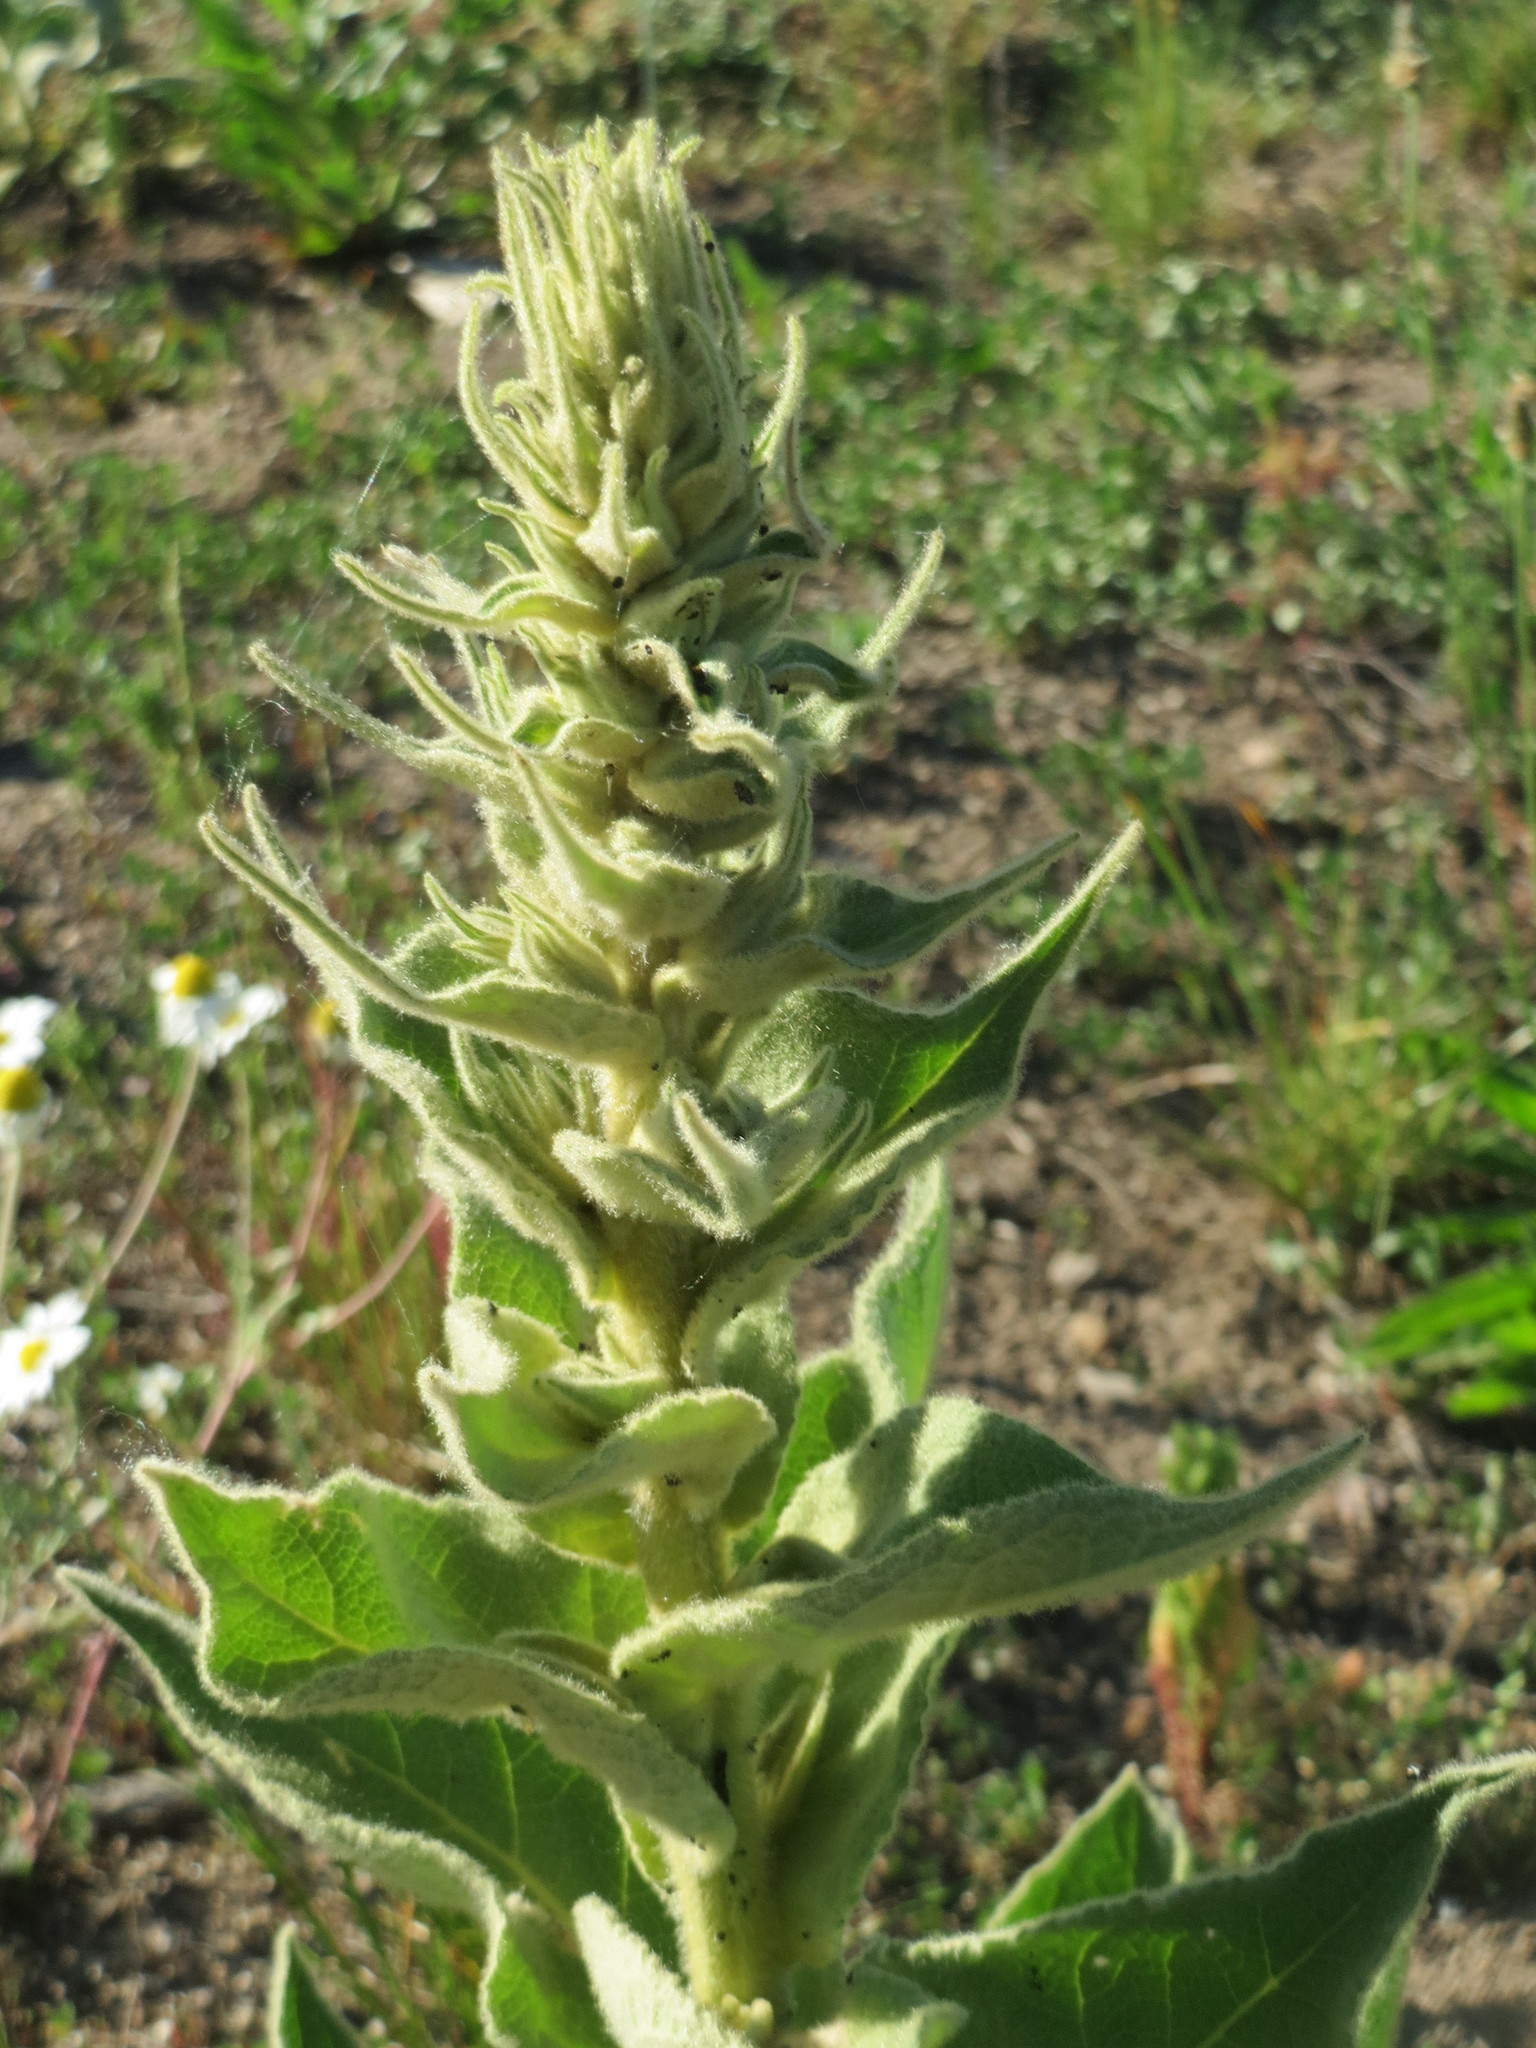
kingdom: Plantae
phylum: Tracheophyta
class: Magnoliopsida
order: Lamiales
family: Scrophulariaceae
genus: Verbascum
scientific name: Verbascum thapsus
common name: Common mullein
